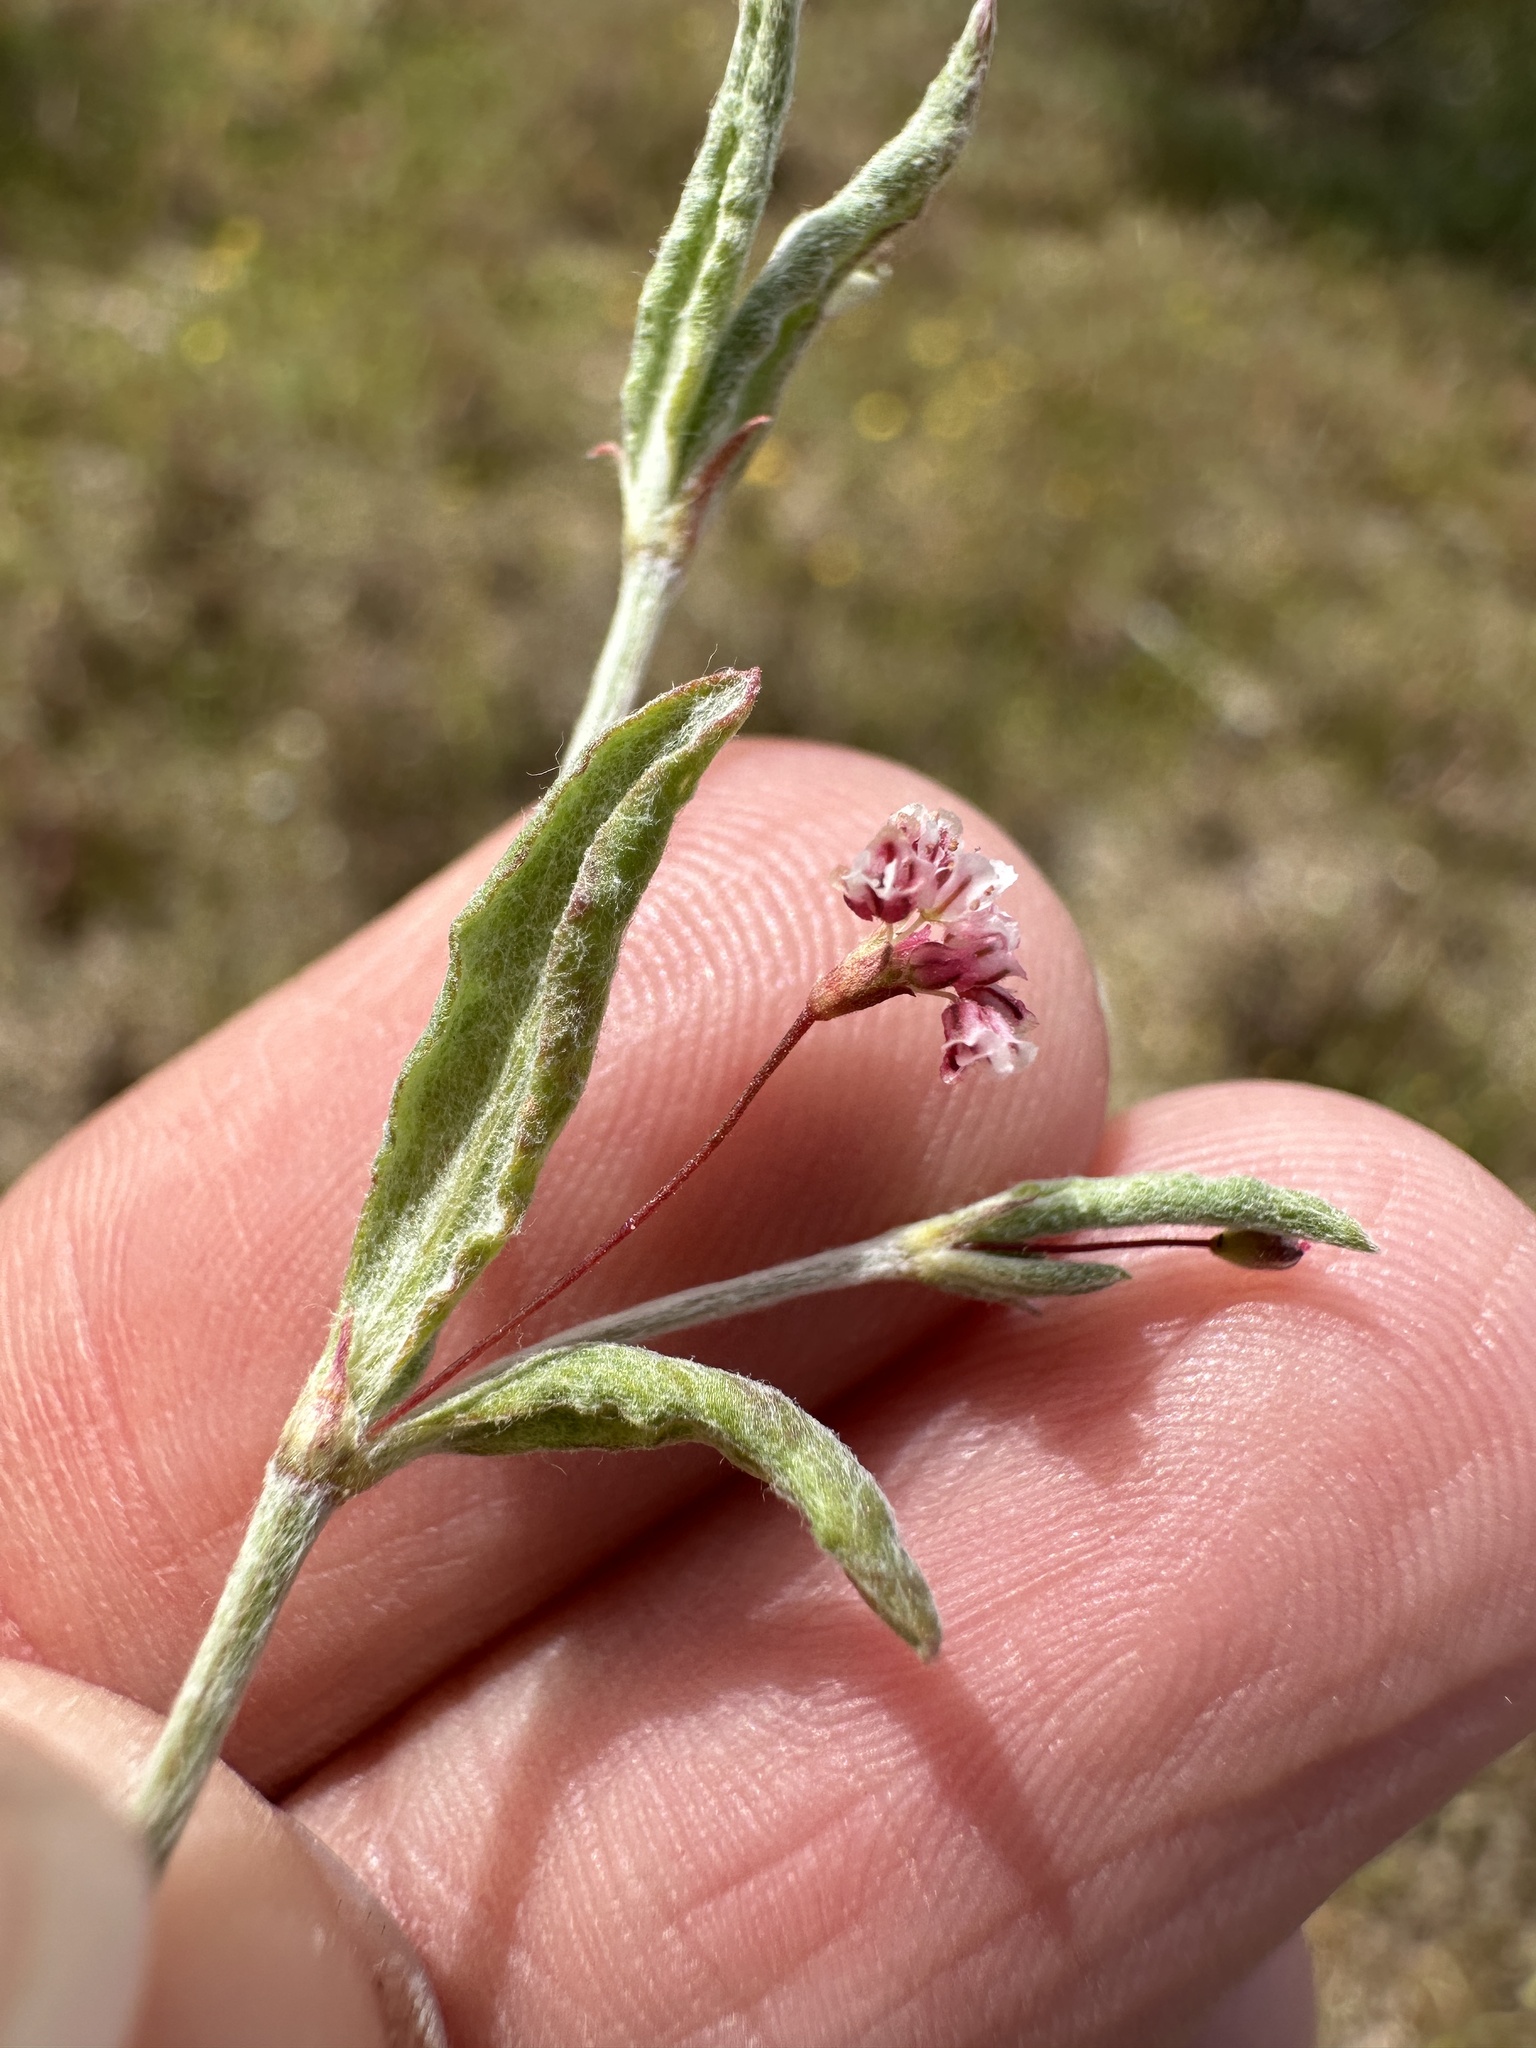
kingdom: Plantae
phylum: Tracheophyta
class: Magnoliopsida
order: Caryophyllales
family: Polygonaceae
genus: Eriogonum
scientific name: Eriogonum gracillimum
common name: Rose-and-white wild buckwheat
